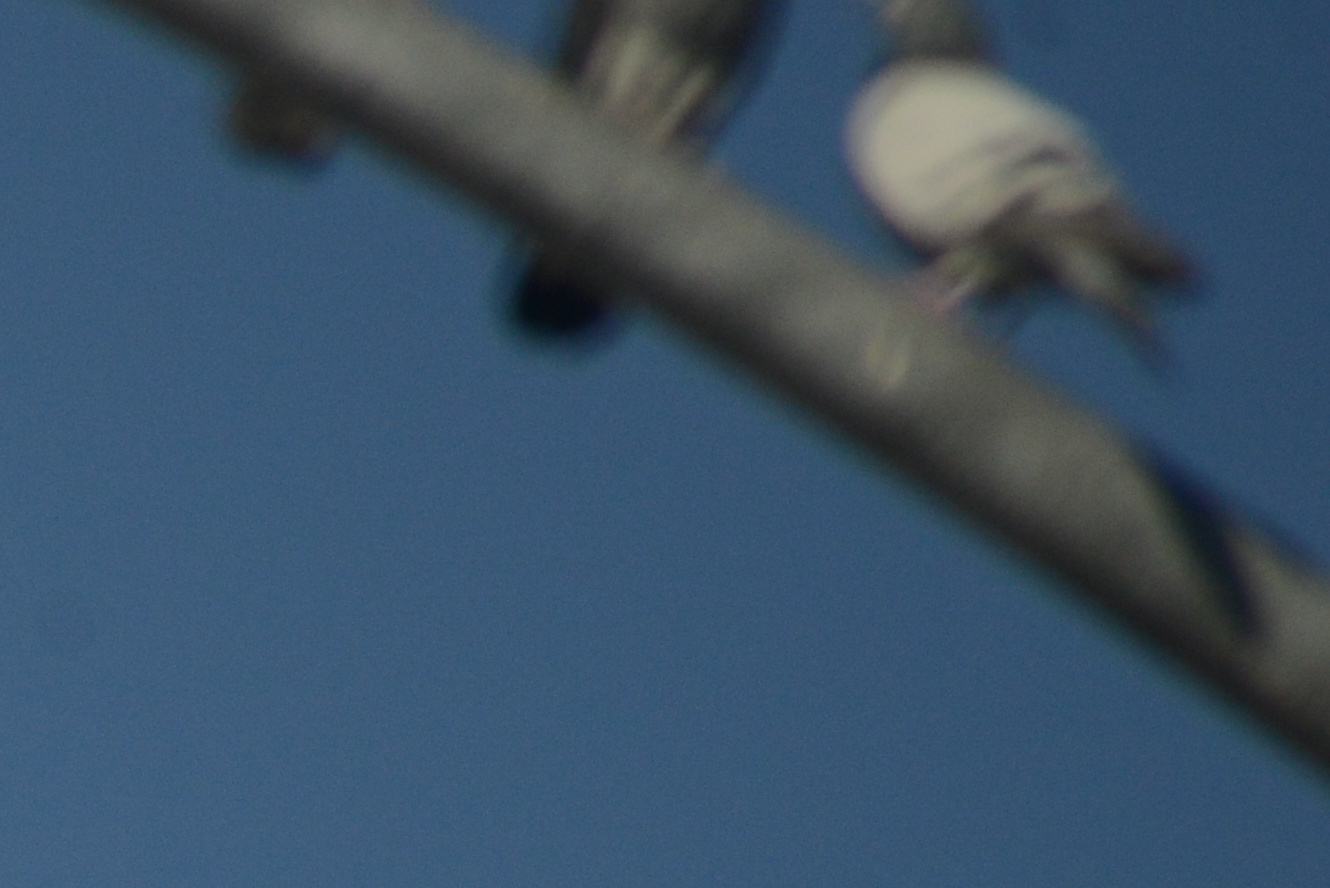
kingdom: Animalia
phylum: Chordata
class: Aves
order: Columbiformes
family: Columbidae
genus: Columba
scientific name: Columba livia
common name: Rock pigeon
